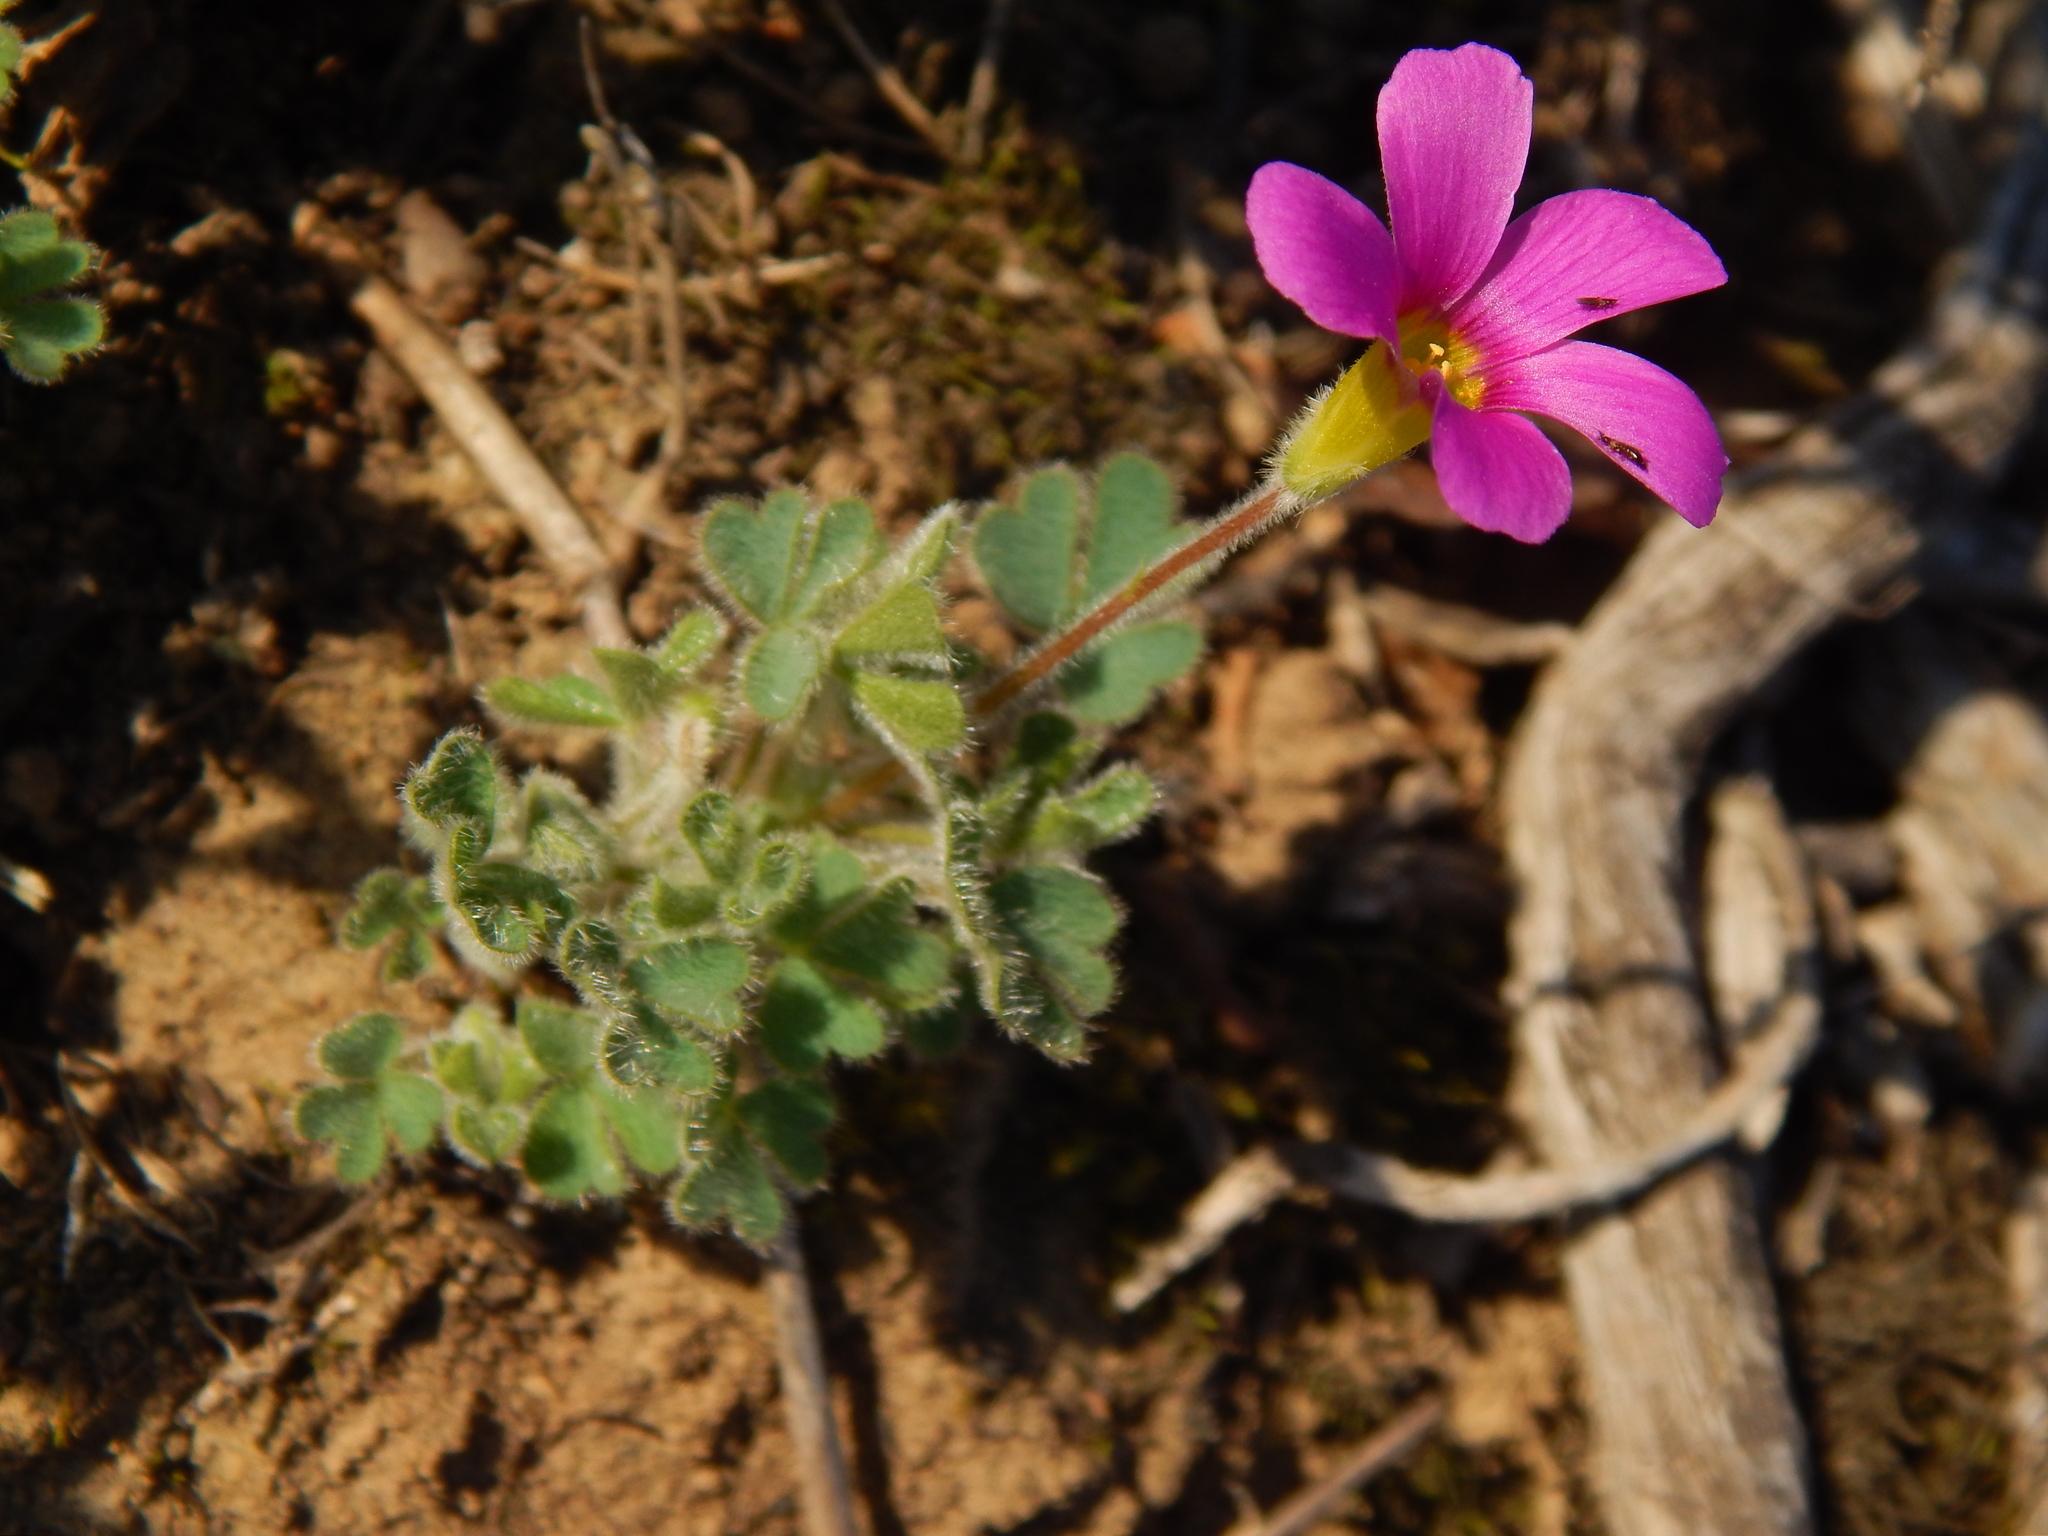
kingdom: Plantae
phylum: Tracheophyta
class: Magnoliopsida
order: Oxalidales
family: Oxalidaceae
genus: Oxalis
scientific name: Oxalis imbricata
